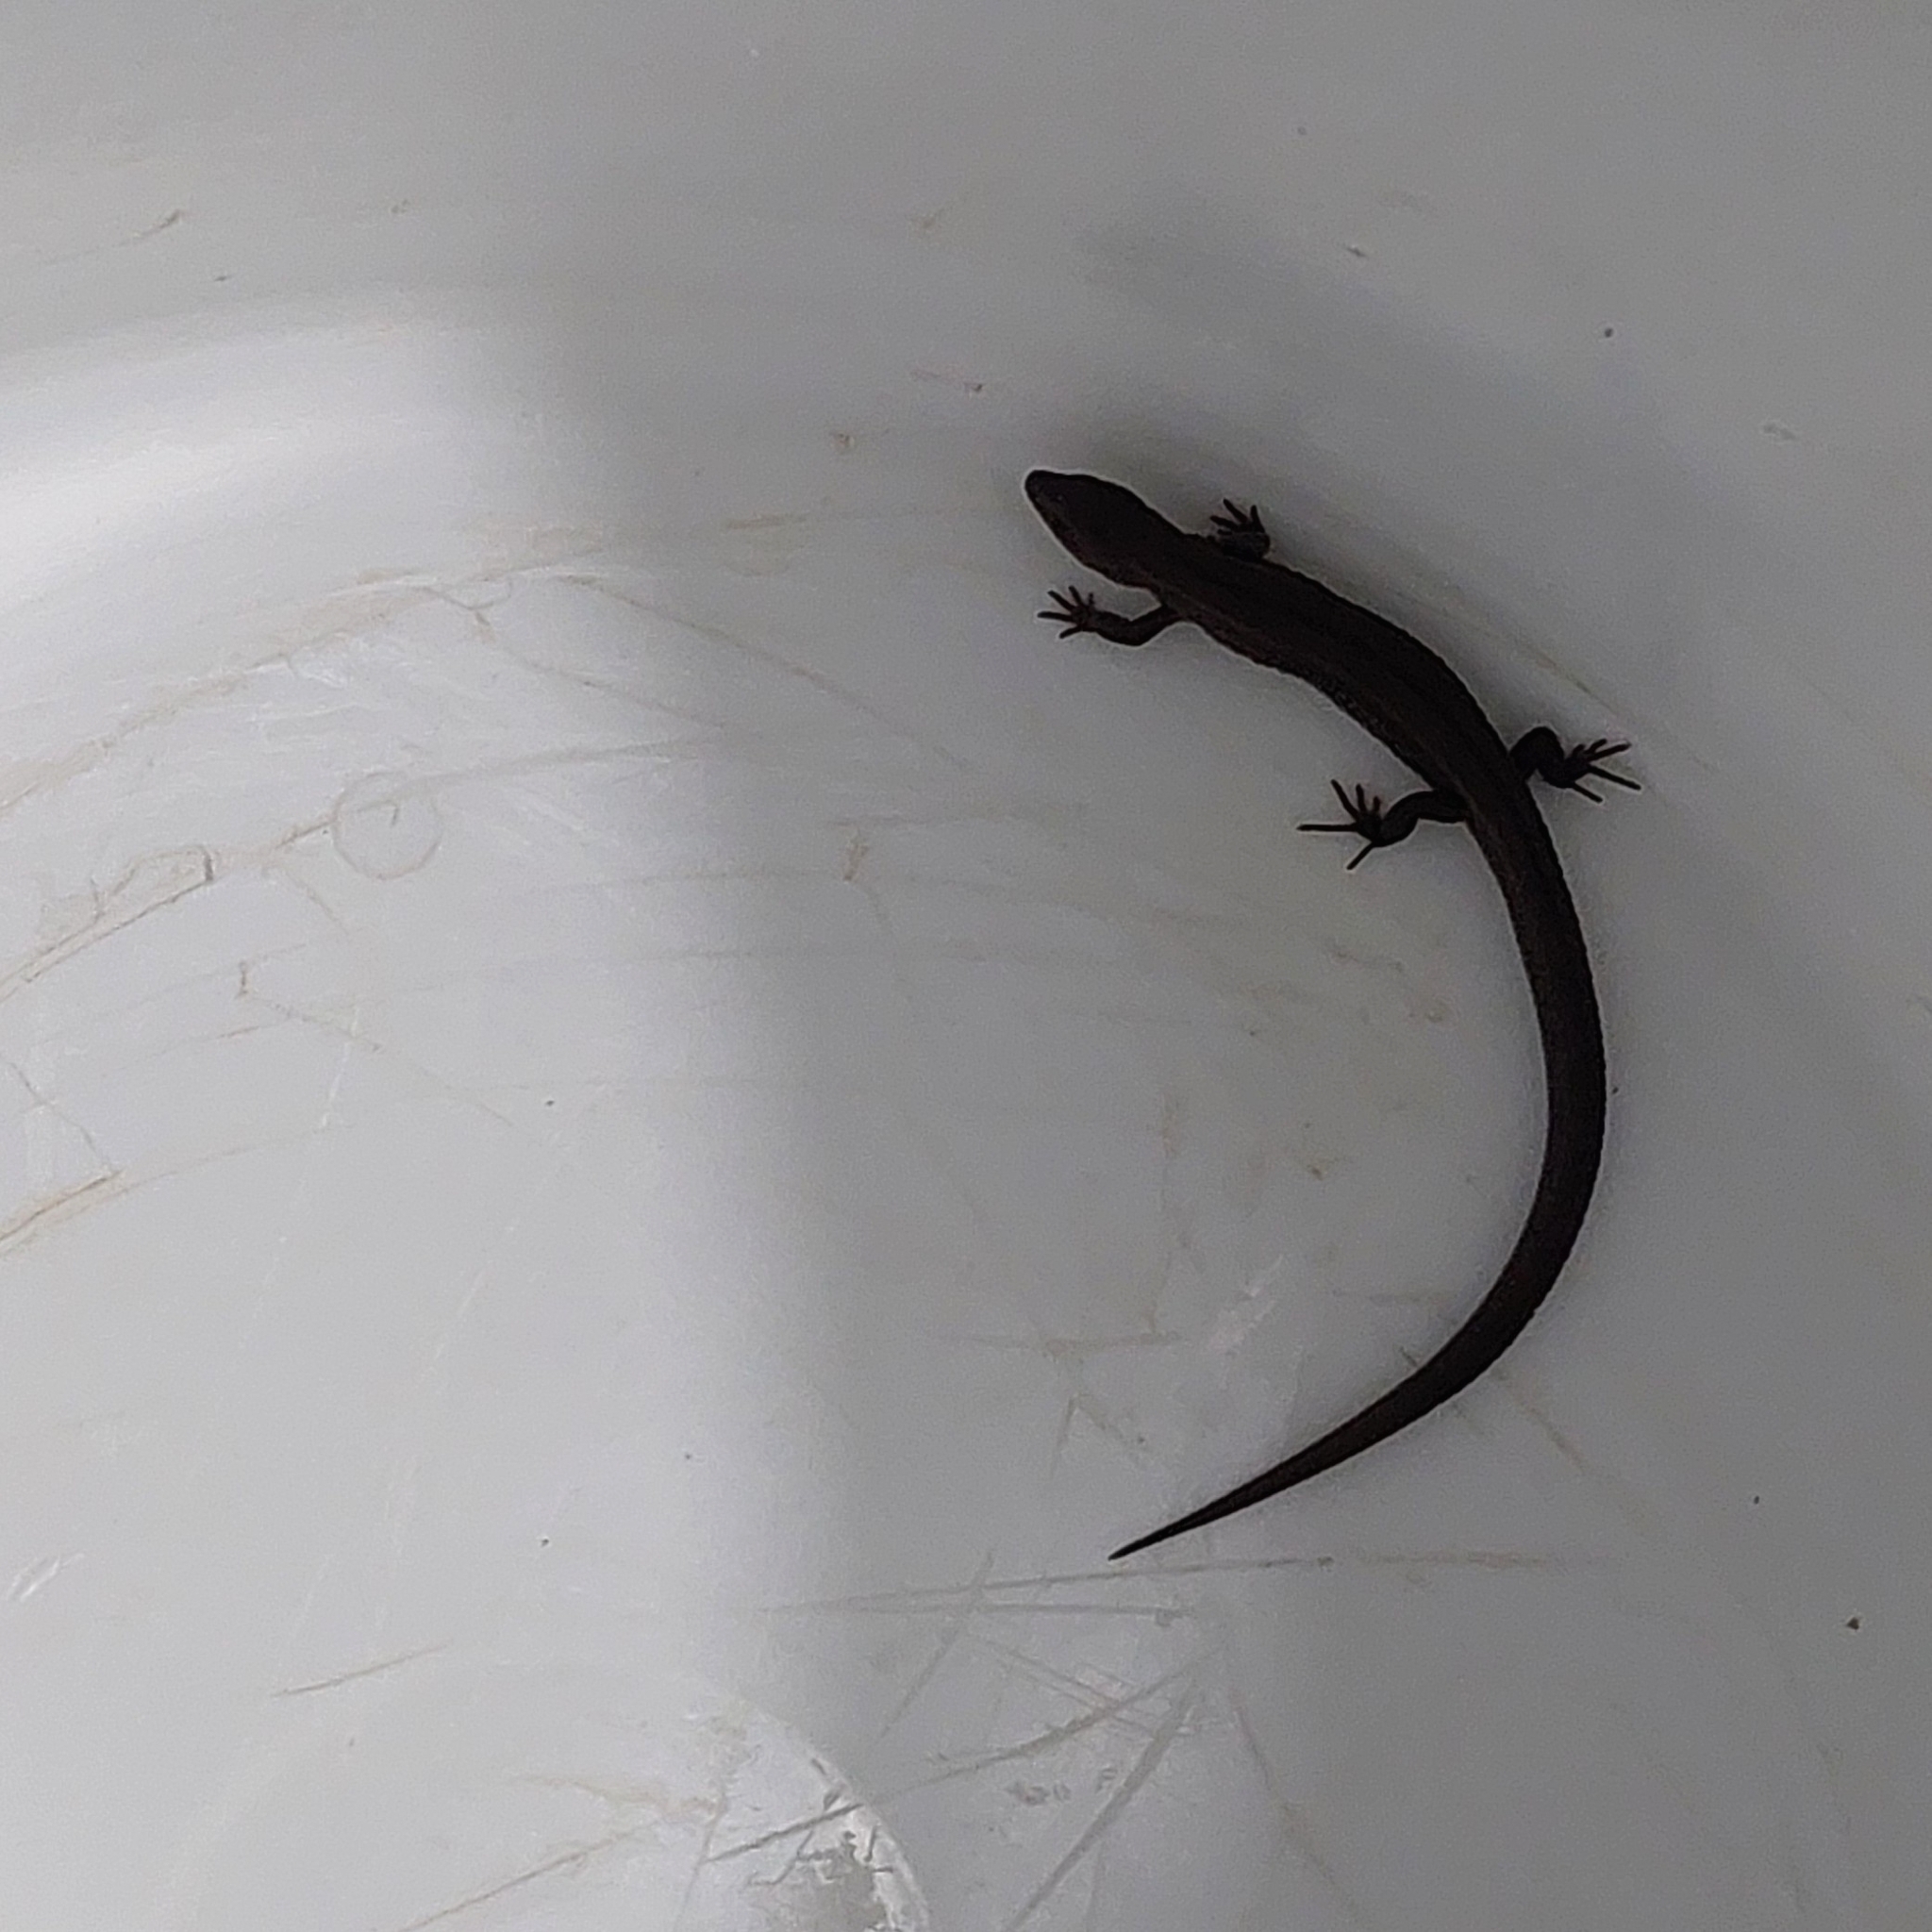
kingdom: Animalia
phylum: Chordata
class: Squamata
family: Gymnophthalmidae
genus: Cercosaura
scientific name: Cercosaura schreibersii
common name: Schreibers' many-fingered teiid
